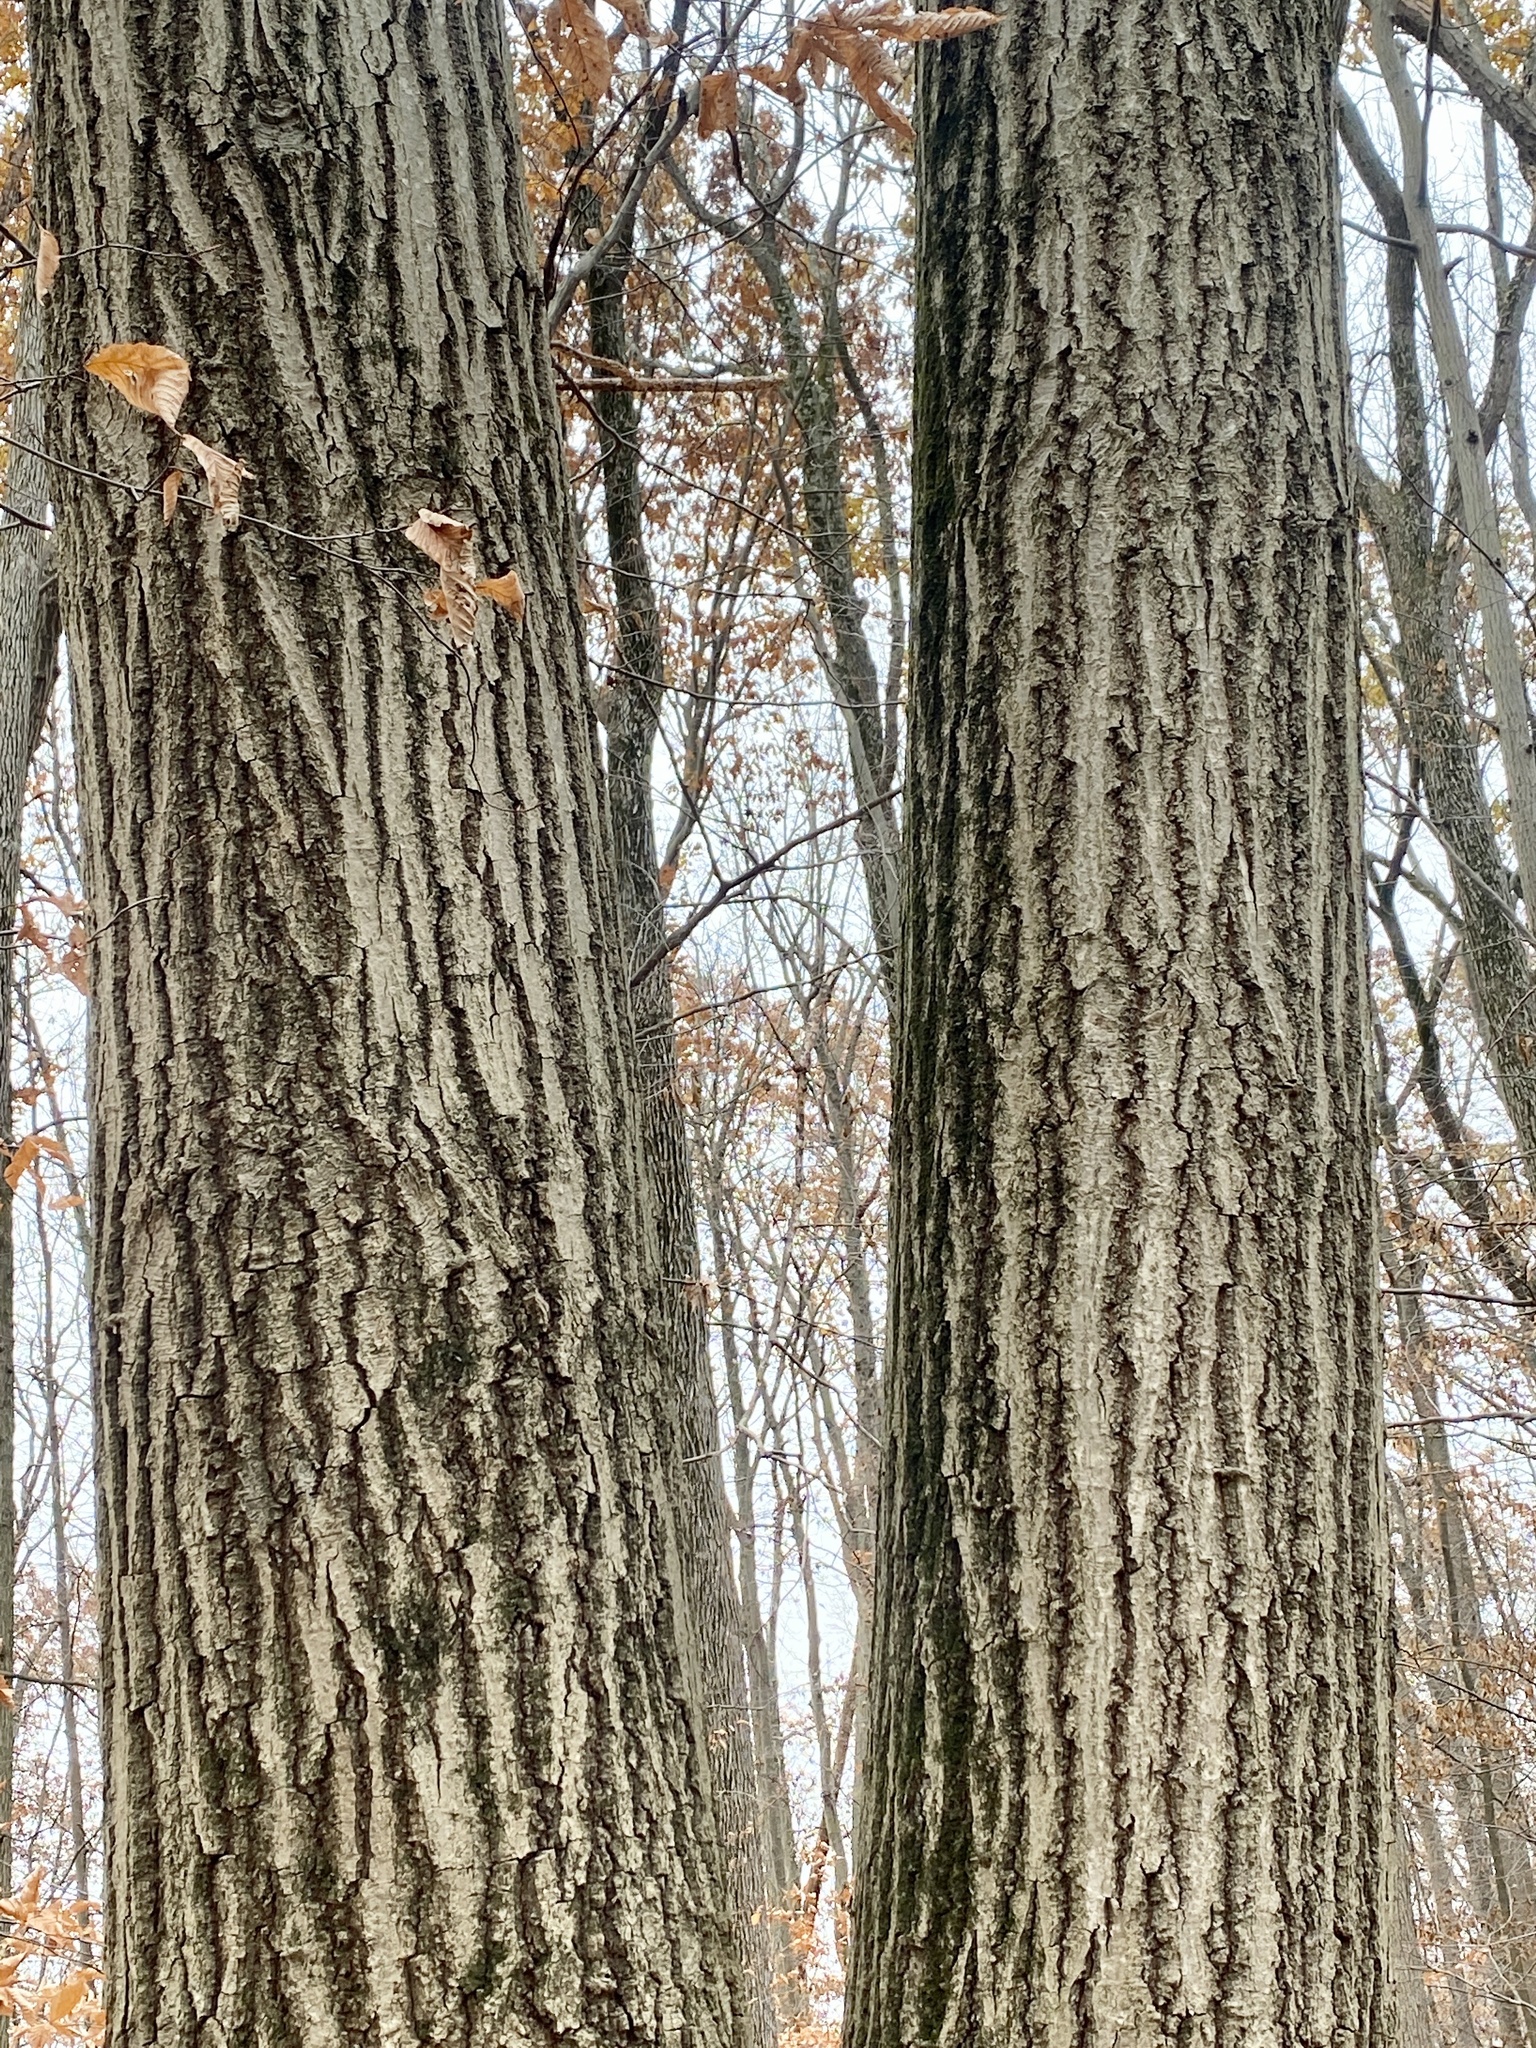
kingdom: Plantae
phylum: Tracheophyta
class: Magnoliopsida
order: Fagales
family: Fagaceae
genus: Quercus
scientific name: Quercus rubra
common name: Red oak
